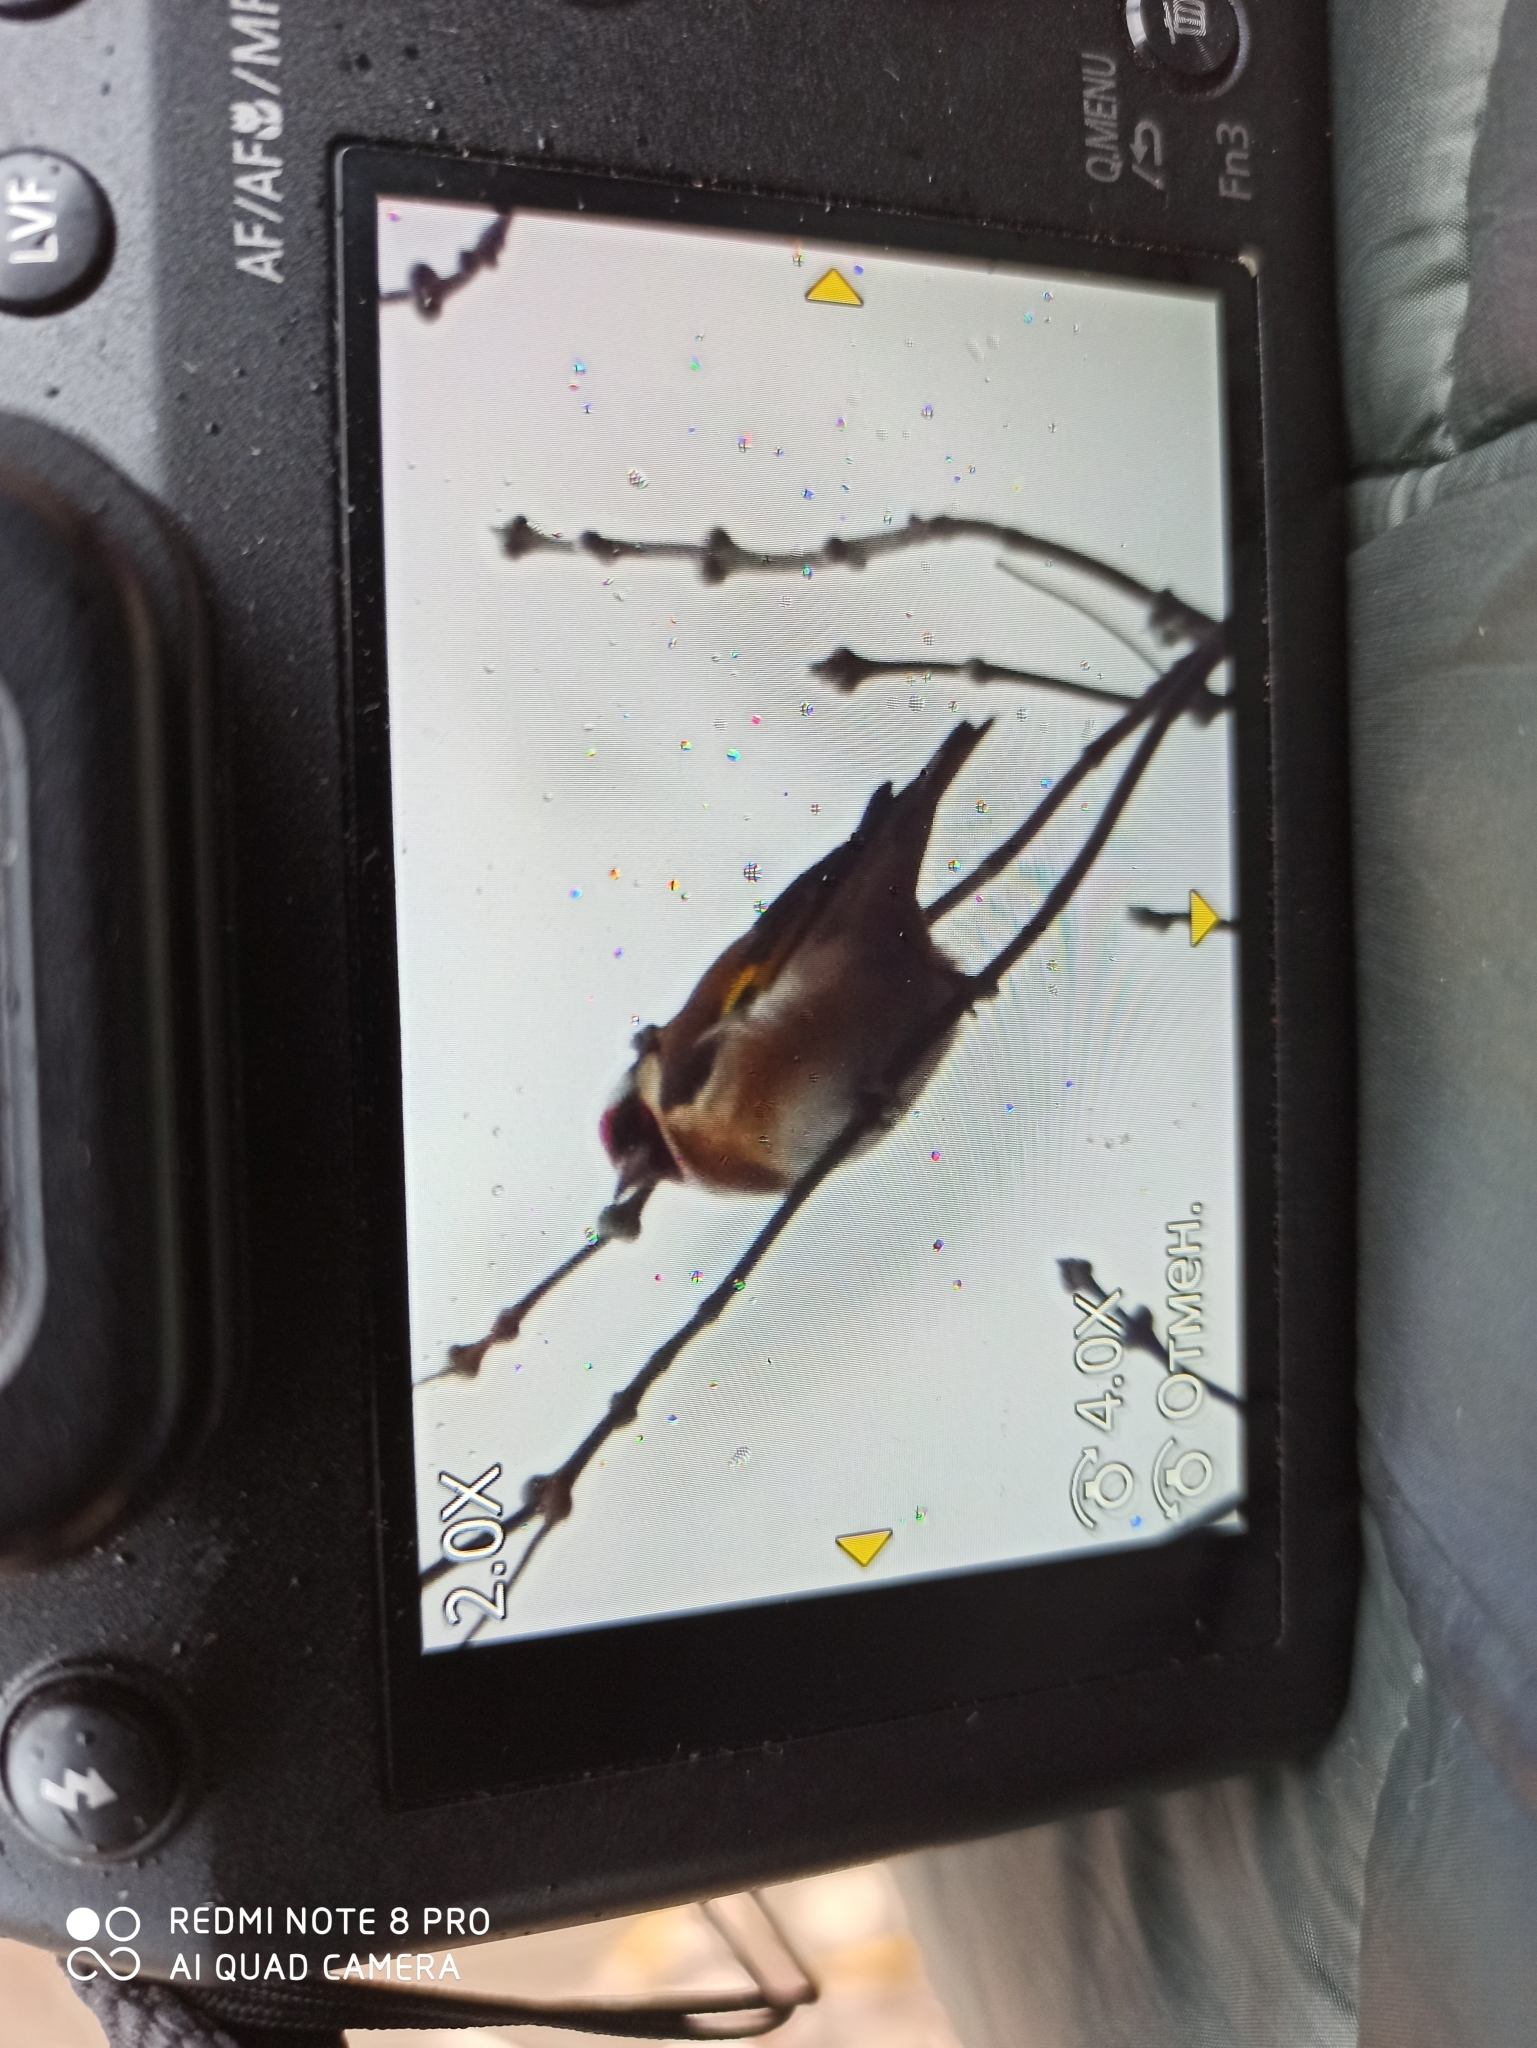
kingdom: Animalia
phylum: Chordata
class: Aves
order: Passeriformes
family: Fringillidae
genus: Carduelis
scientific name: Carduelis carduelis
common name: European goldfinch
